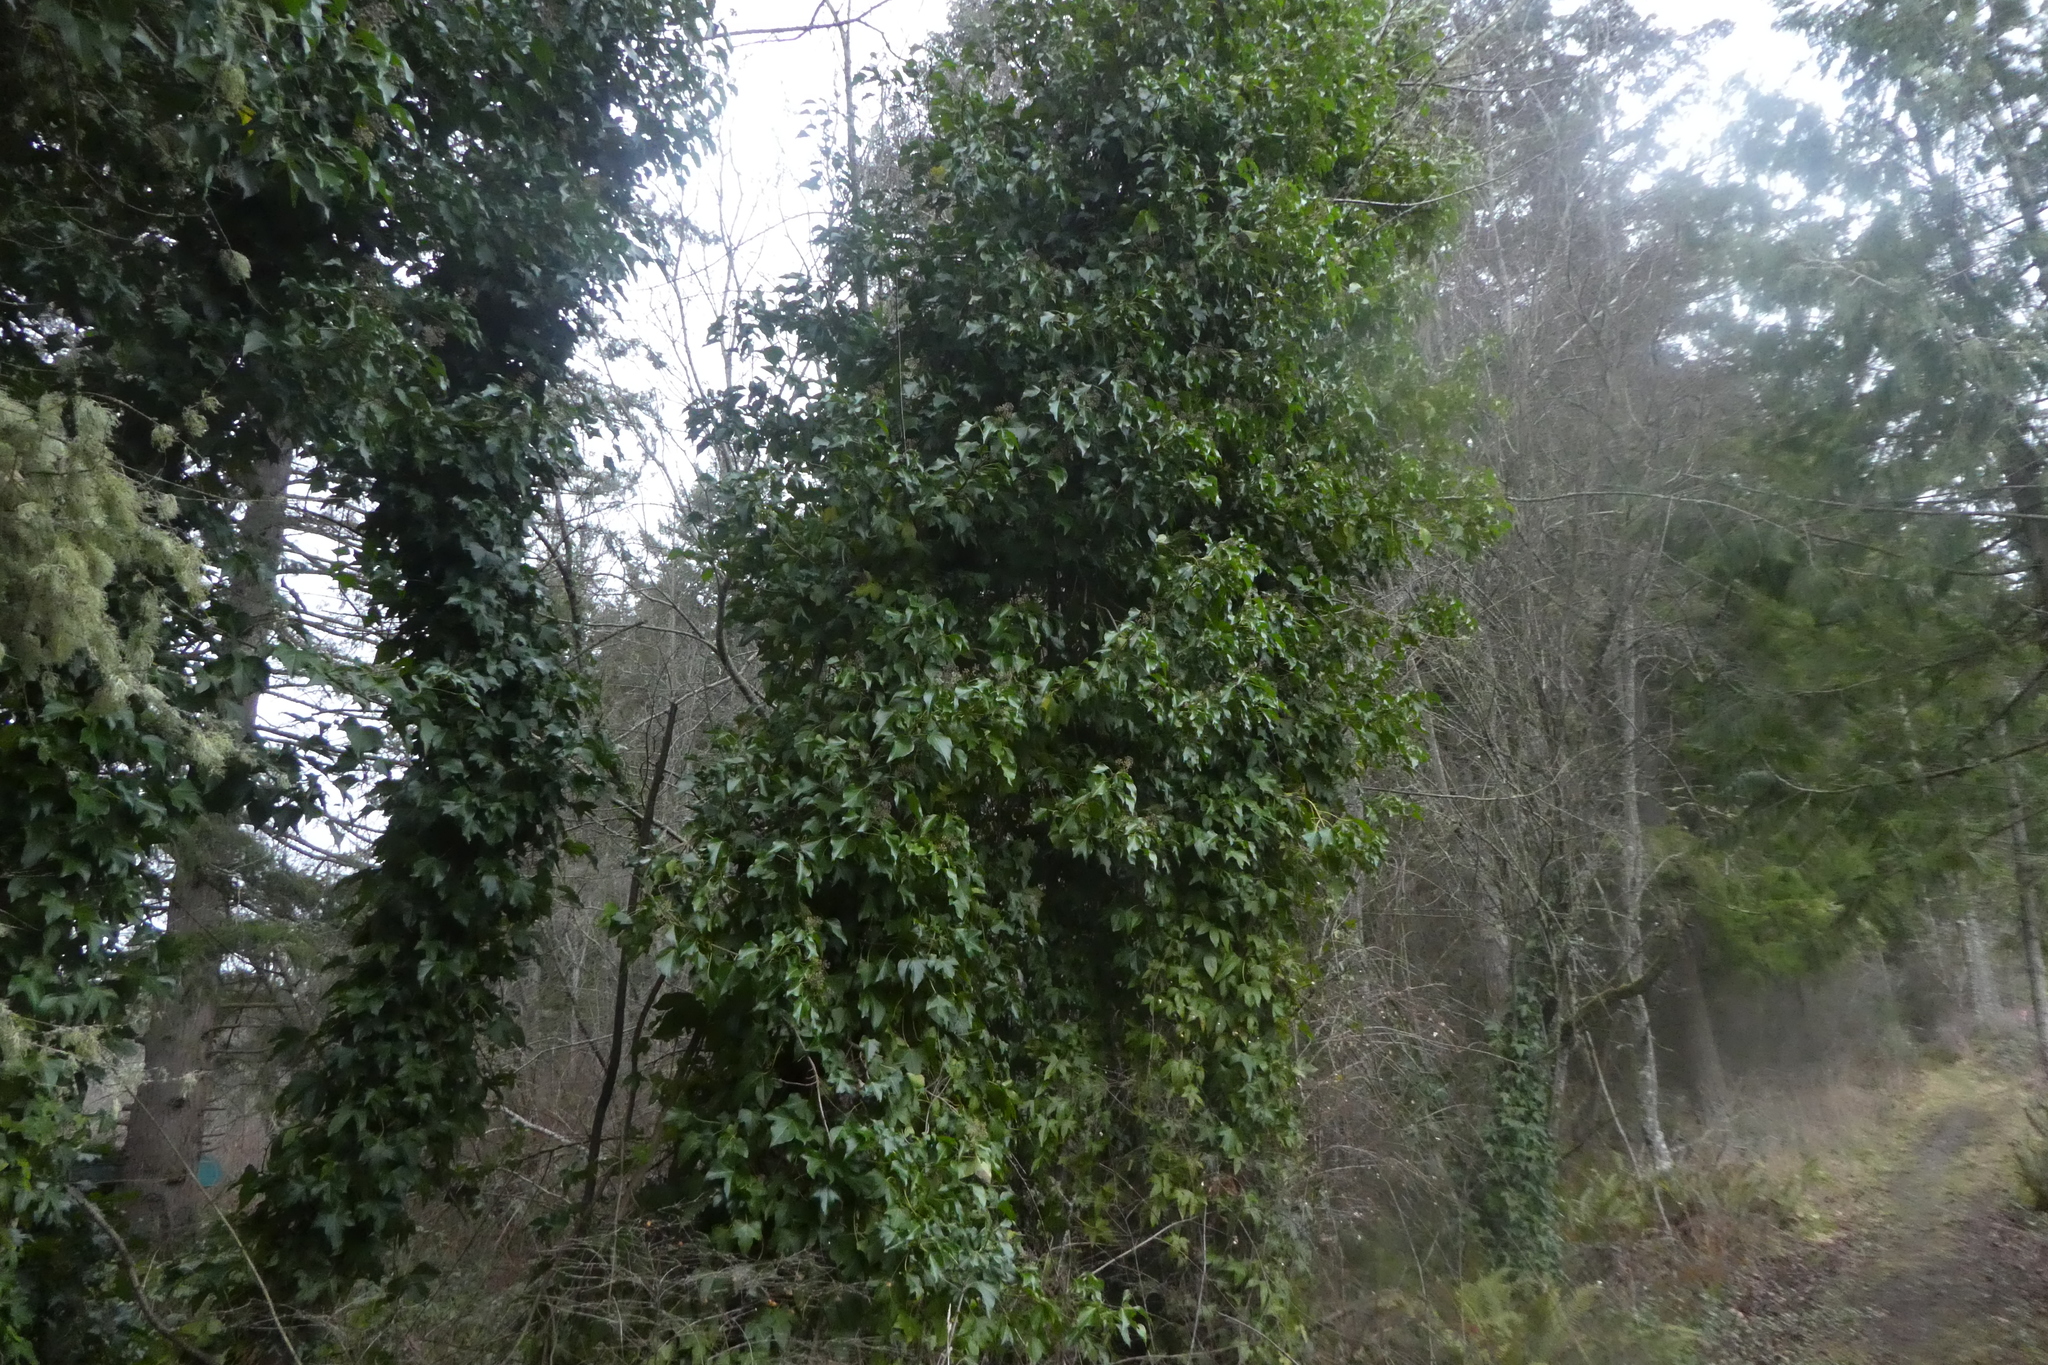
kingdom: Plantae
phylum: Tracheophyta
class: Magnoliopsida
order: Apiales
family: Araliaceae
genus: Hedera
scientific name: Hedera helix
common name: Ivy
